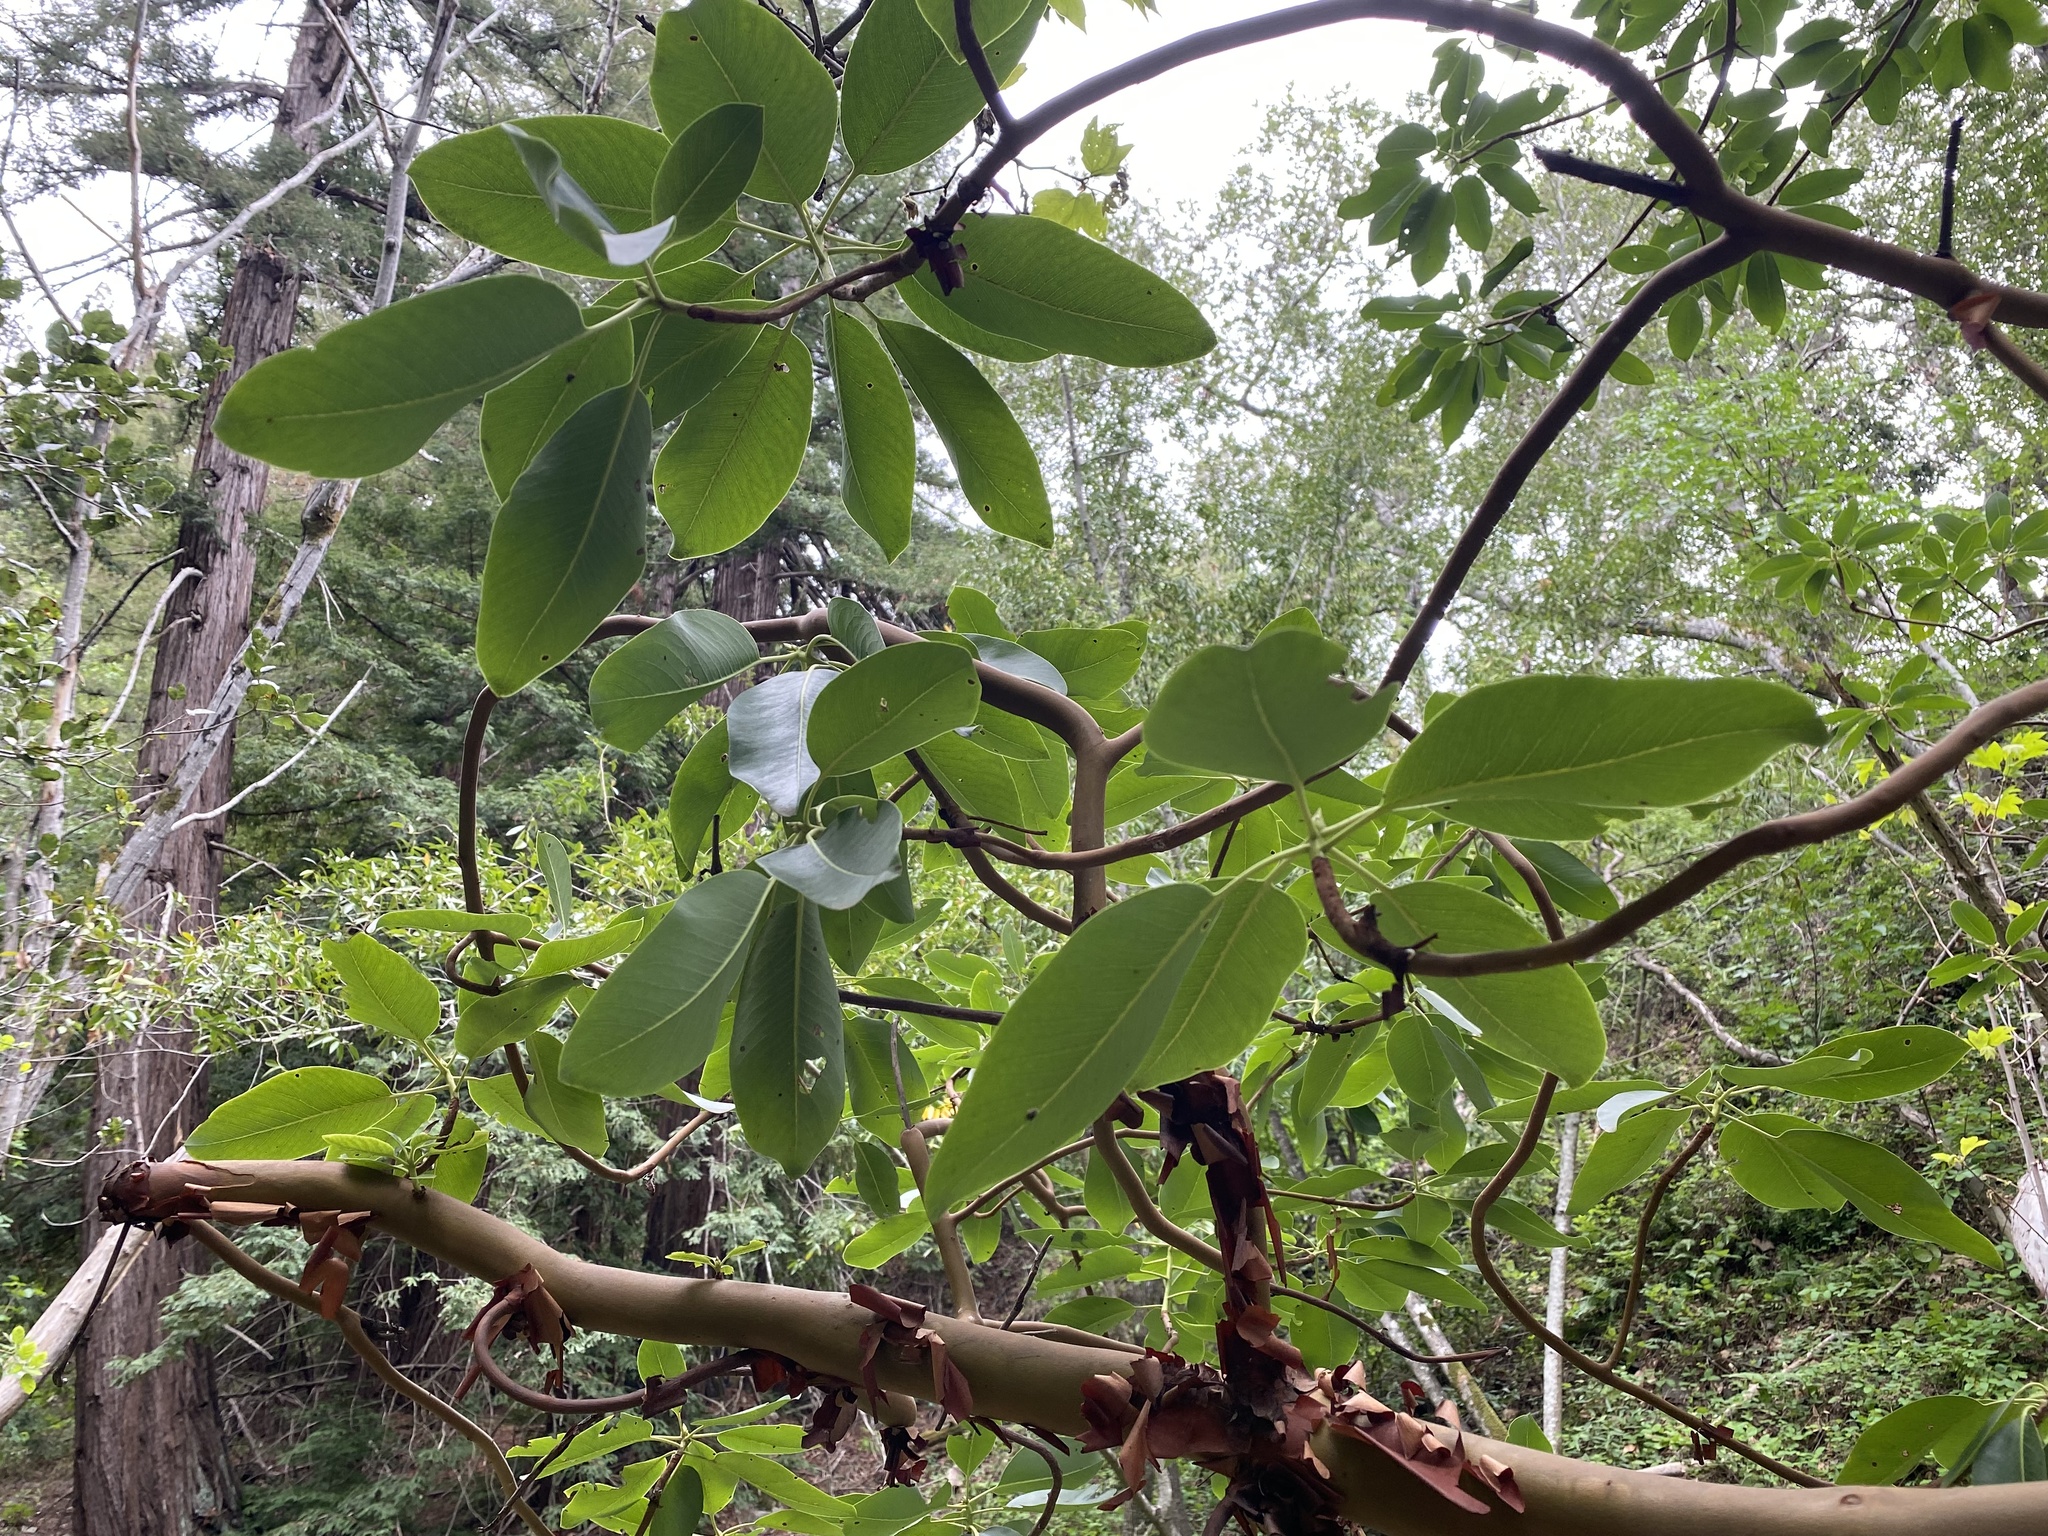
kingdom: Plantae
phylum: Tracheophyta
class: Magnoliopsida
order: Ericales
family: Ericaceae
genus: Arbutus
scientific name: Arbutus menziesii
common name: Pacific madrone
